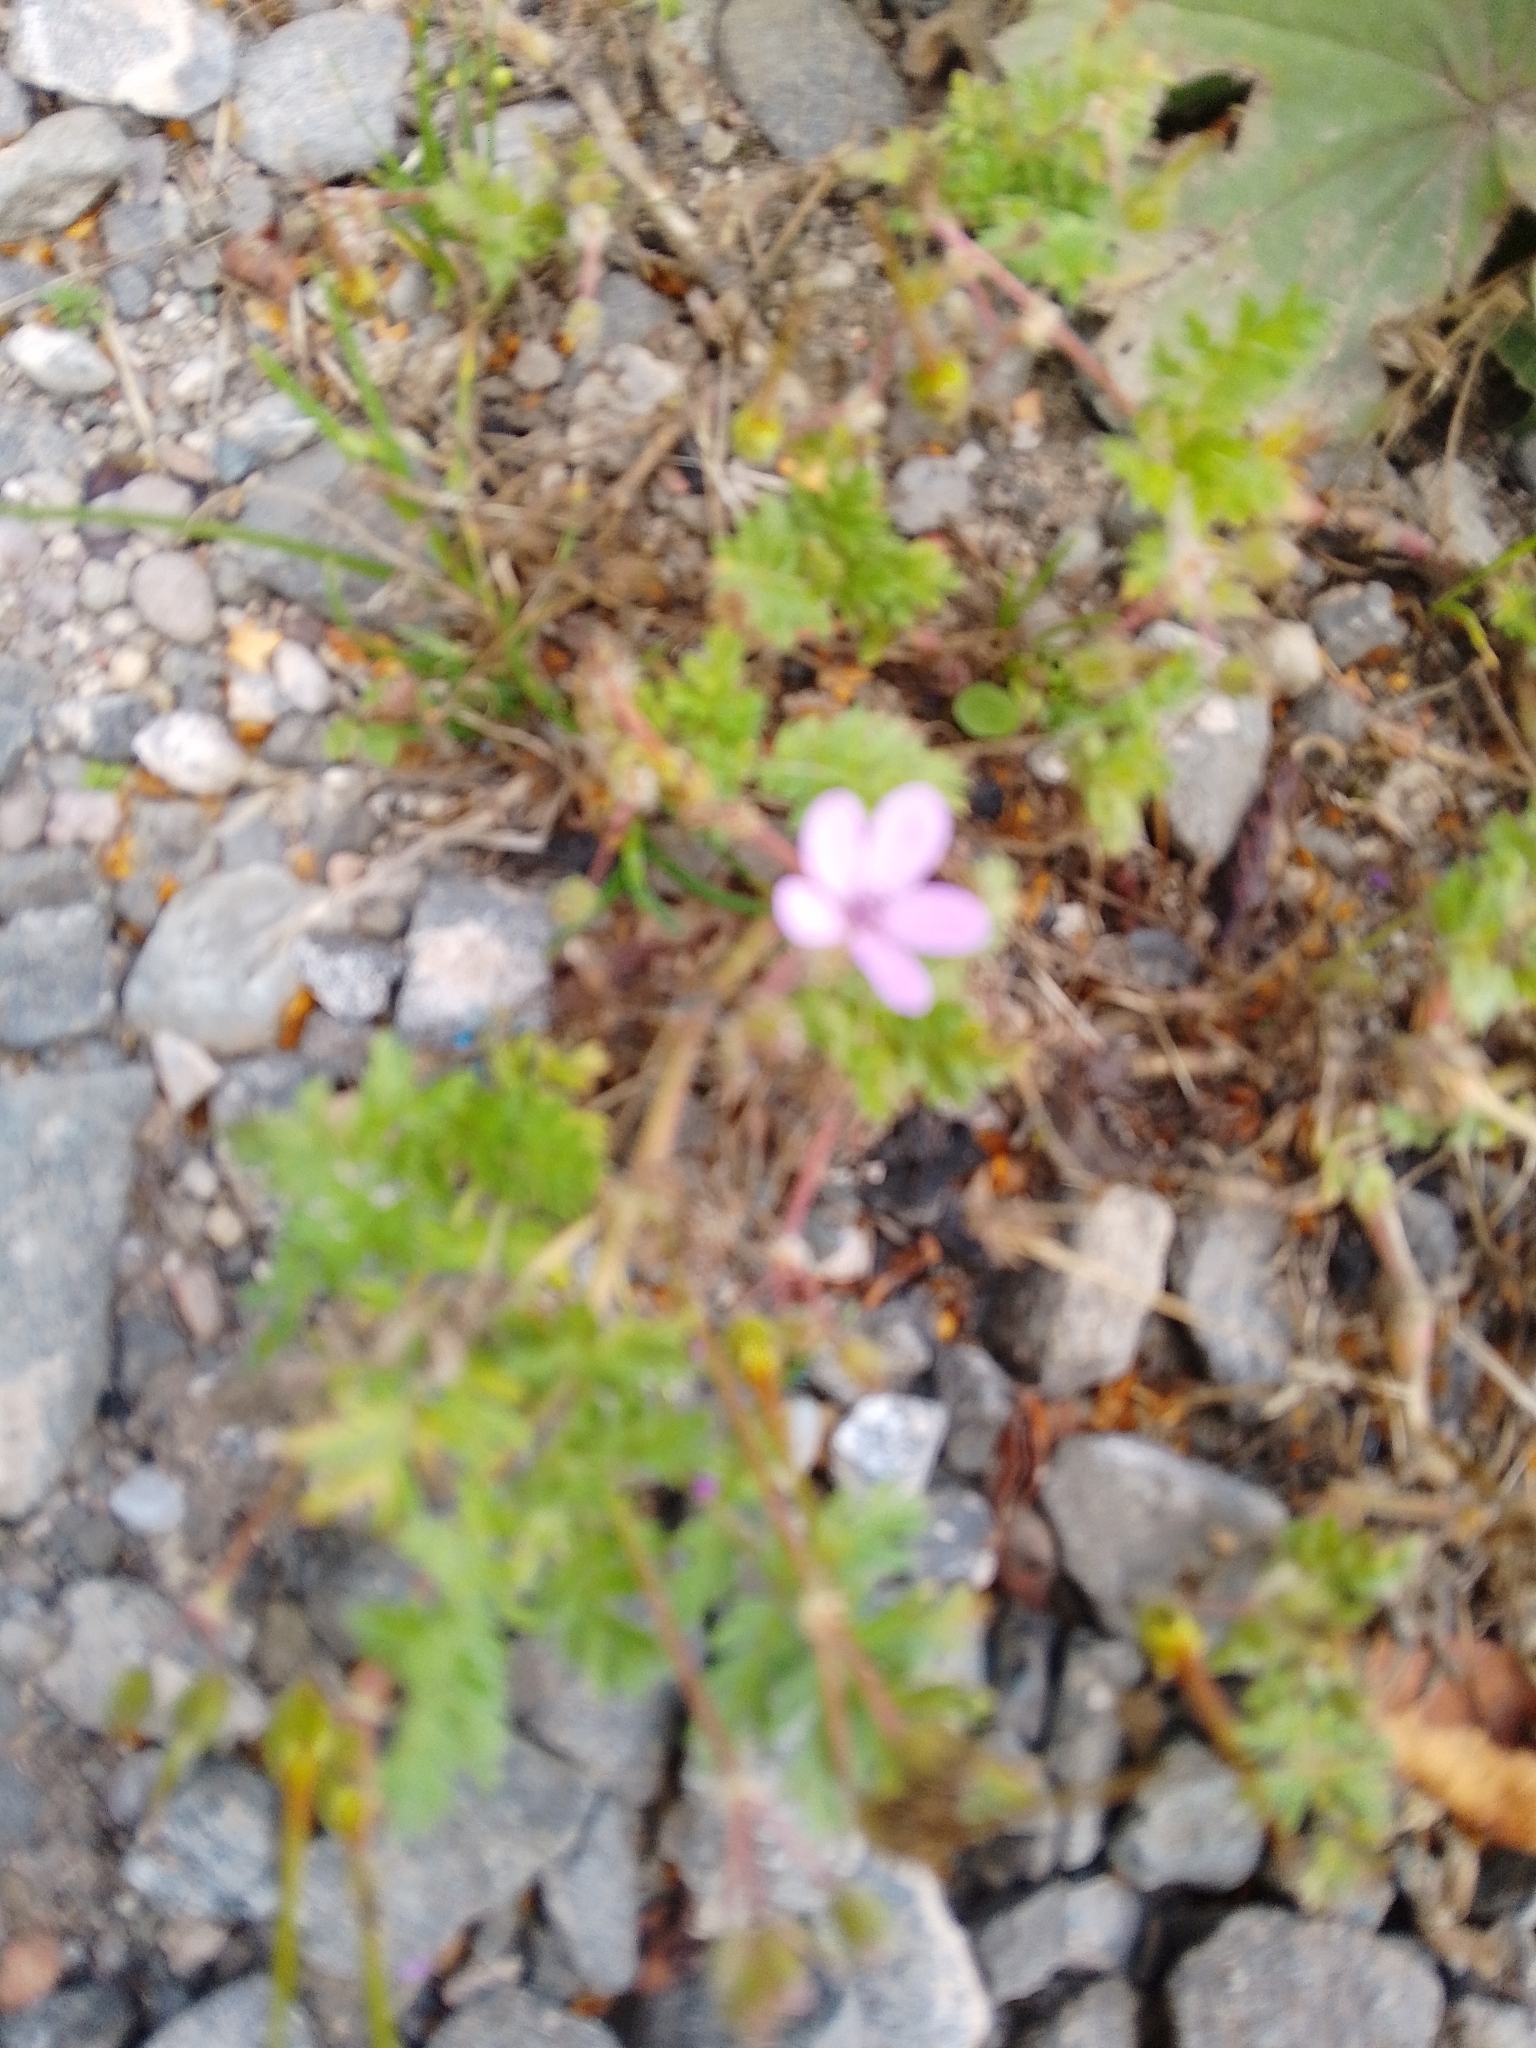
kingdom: Plantae
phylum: Tracheophyta
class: Magnoliopsida
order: Geraniales
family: Geraniaceae
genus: Erodium
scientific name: Erodium cicutarium
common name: Common stork's-bill
